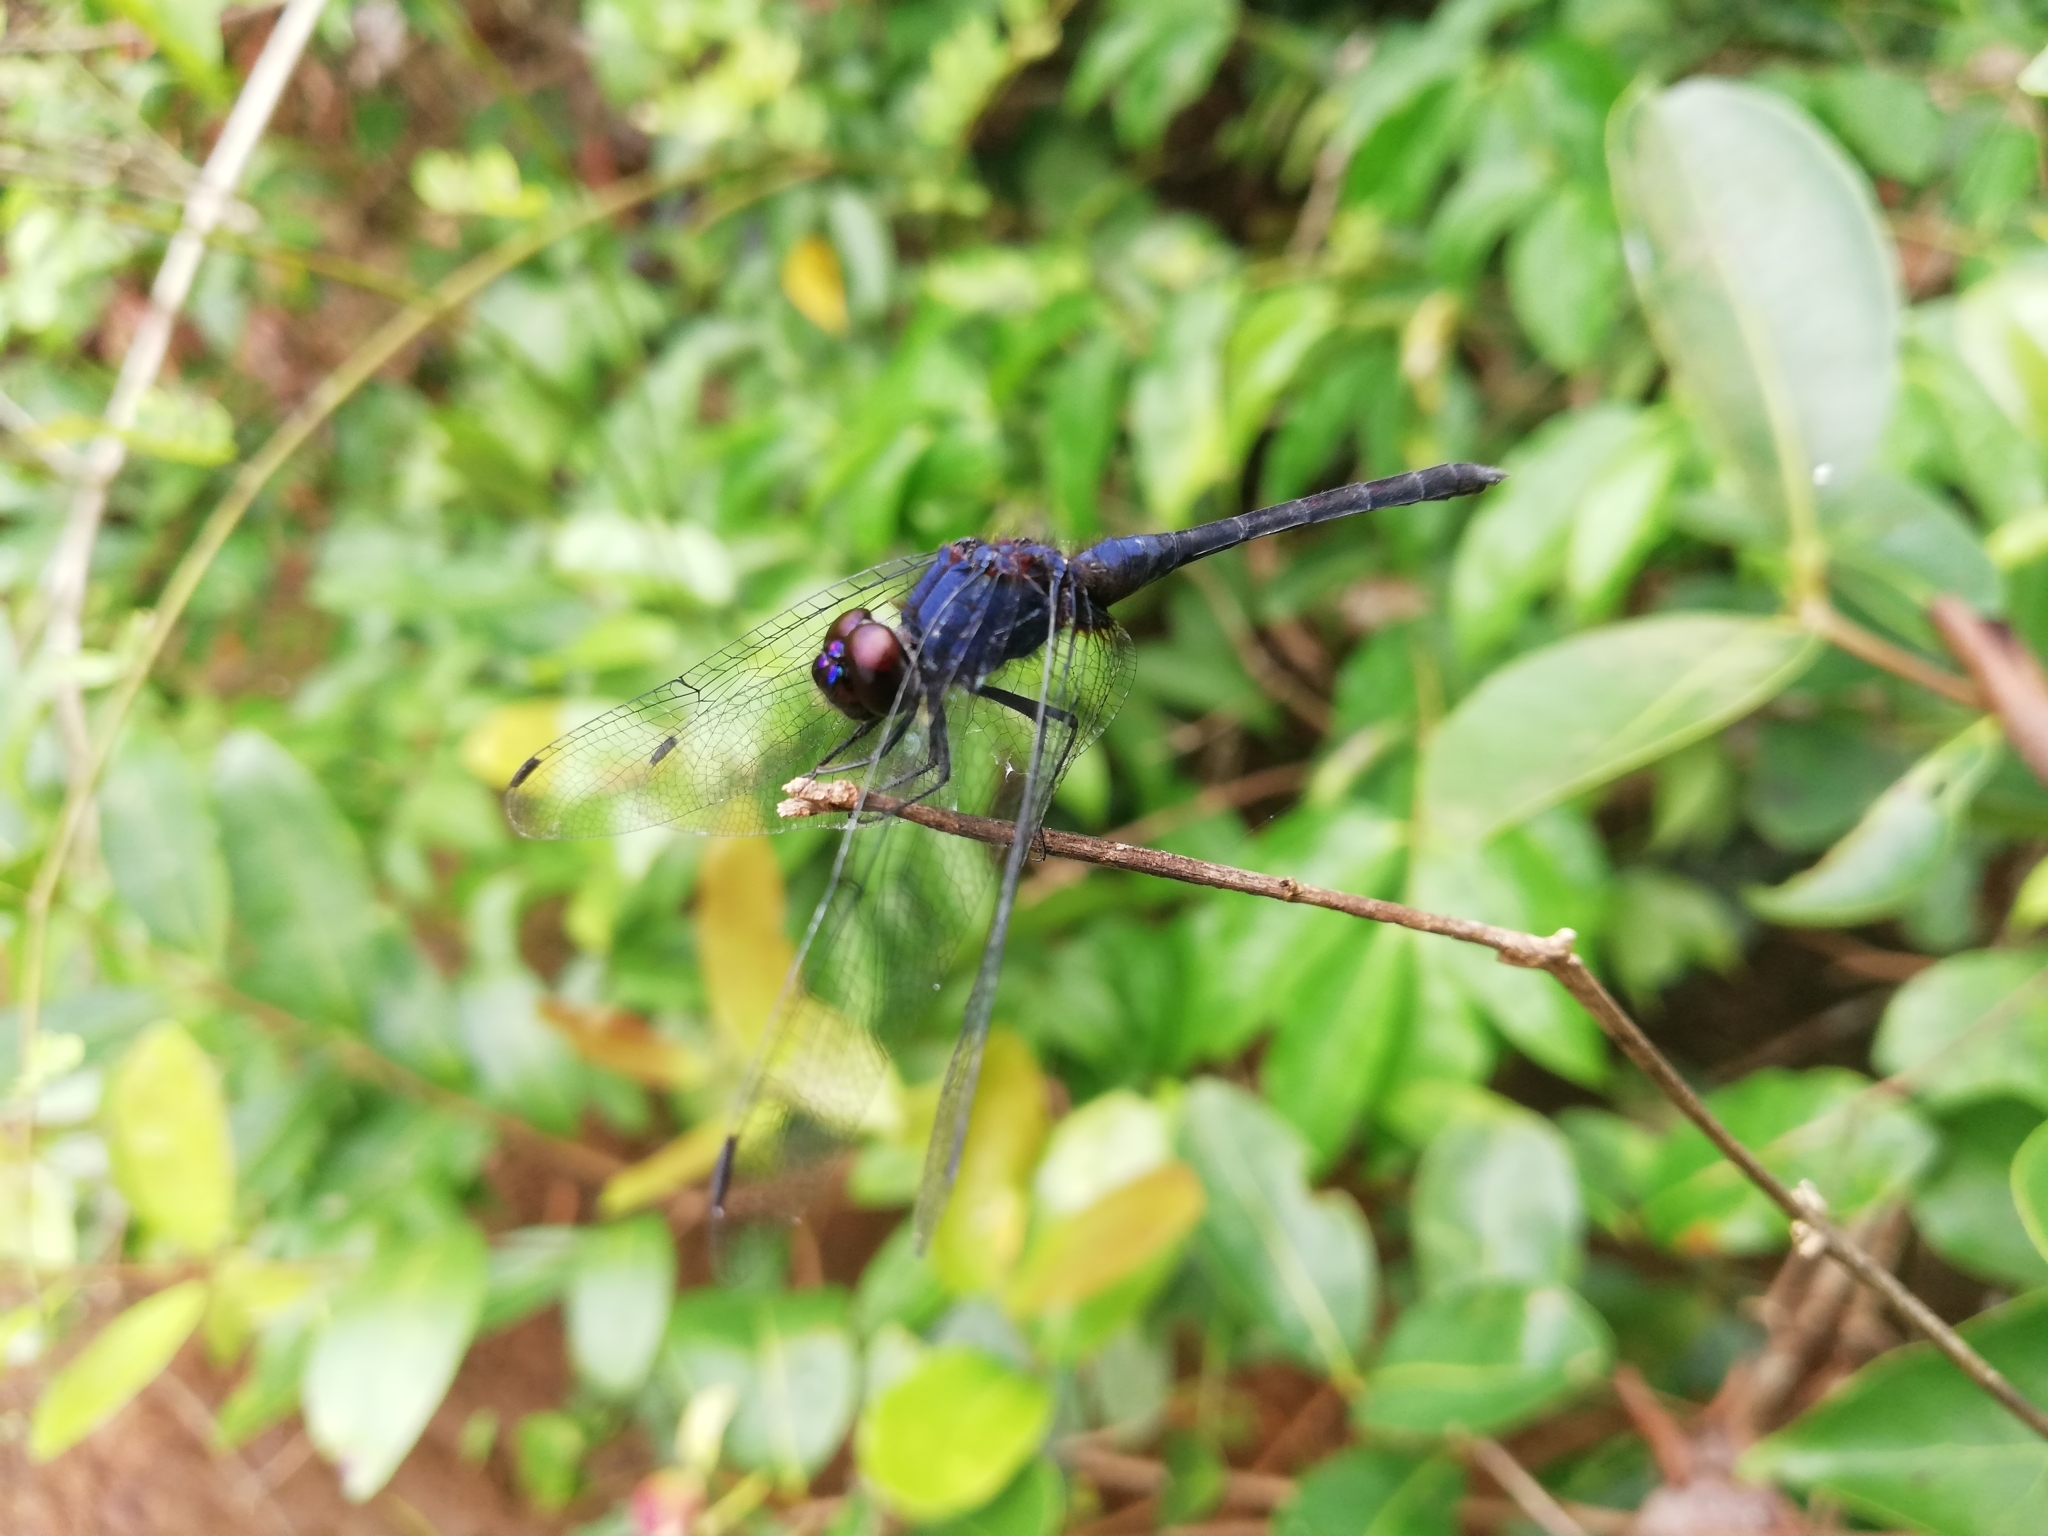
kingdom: Animalia
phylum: Arthropoda
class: Insecta
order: Odonata
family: Libellulidae
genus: Trithemis
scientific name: Trithemis festiva
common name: Indigo dropwing
